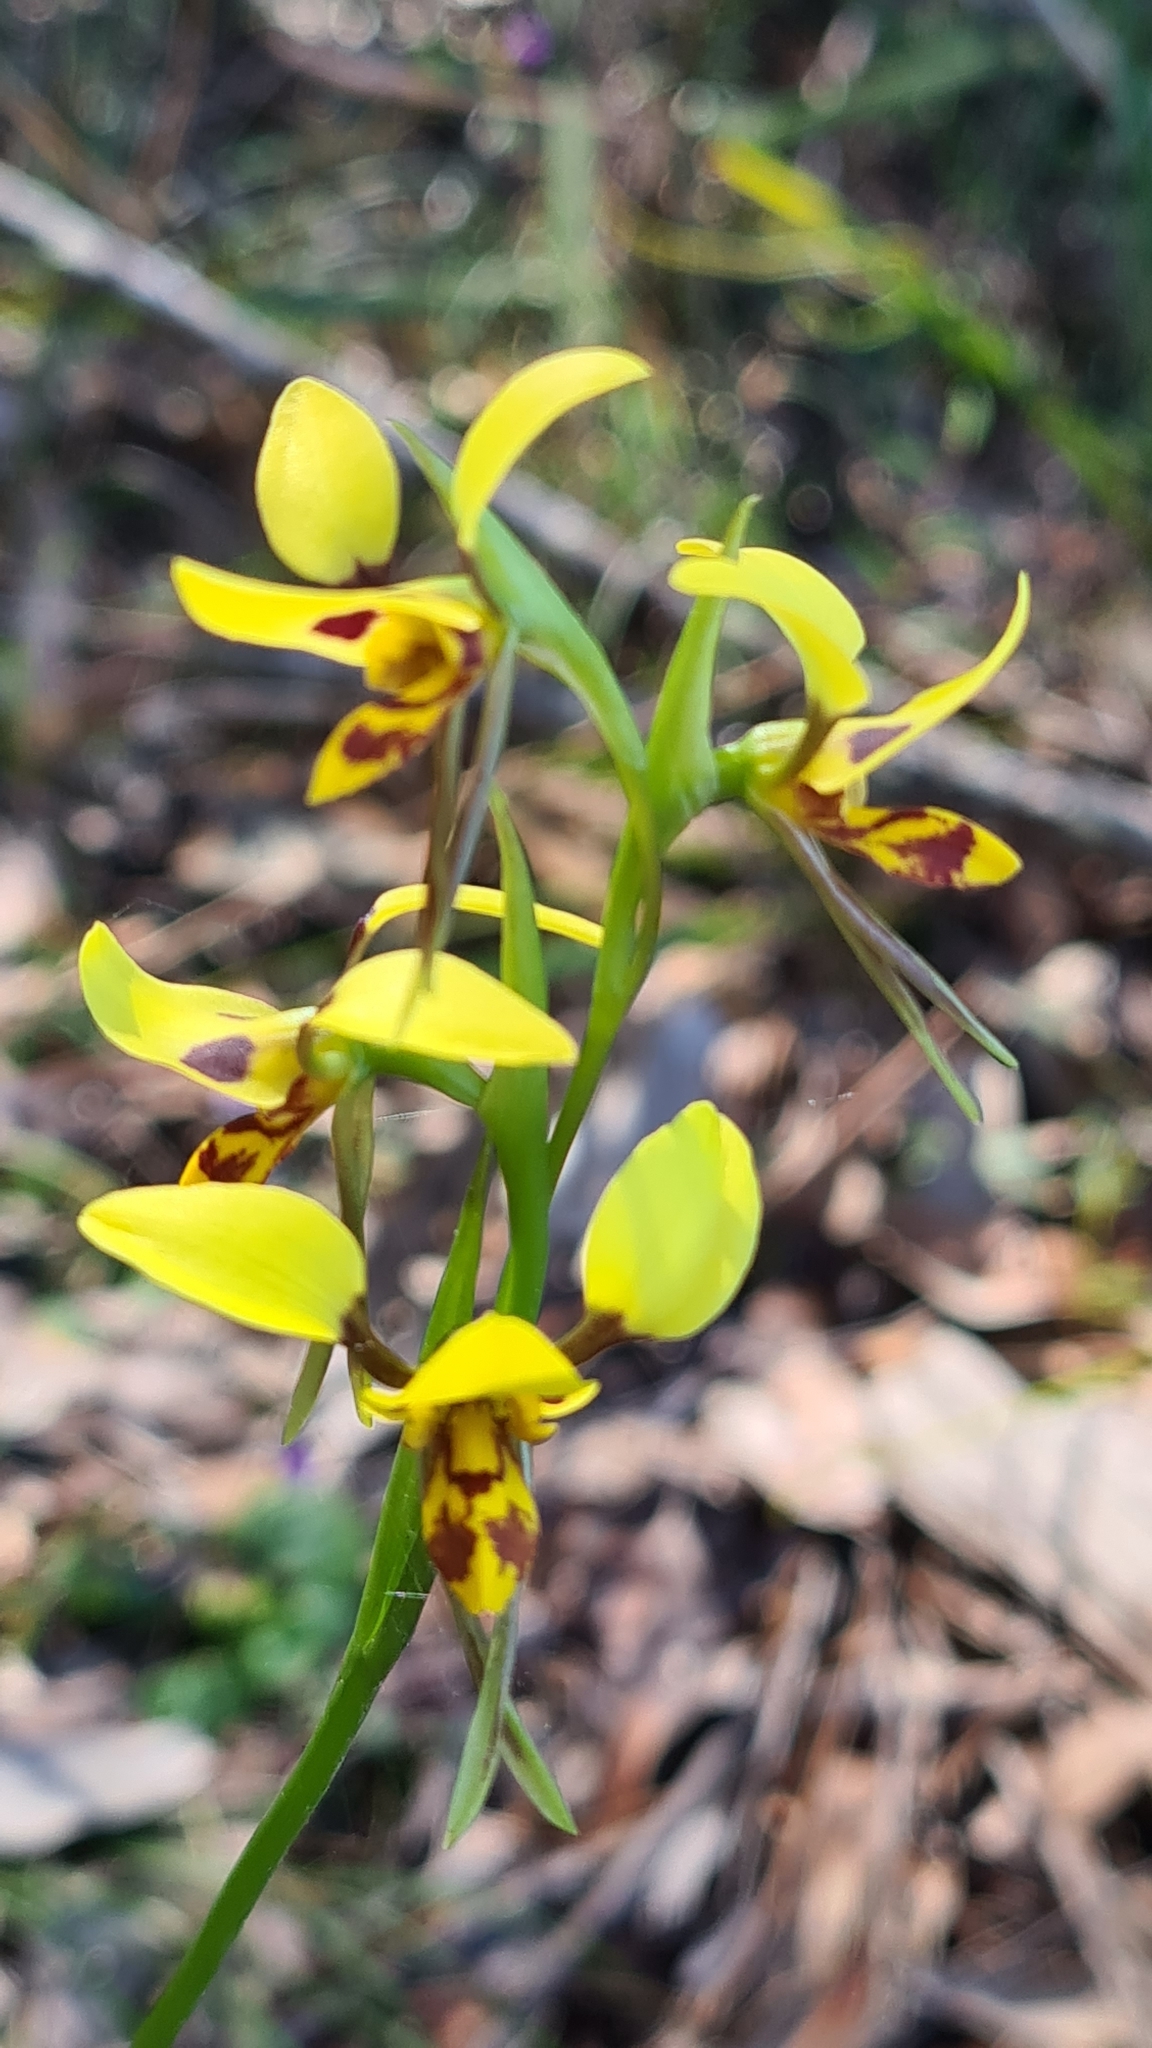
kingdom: Plantae
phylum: Tracheophyta
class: Liliopsida
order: Asparagales
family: Orchidaceae
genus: Diuris
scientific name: Diuris sulphurea
